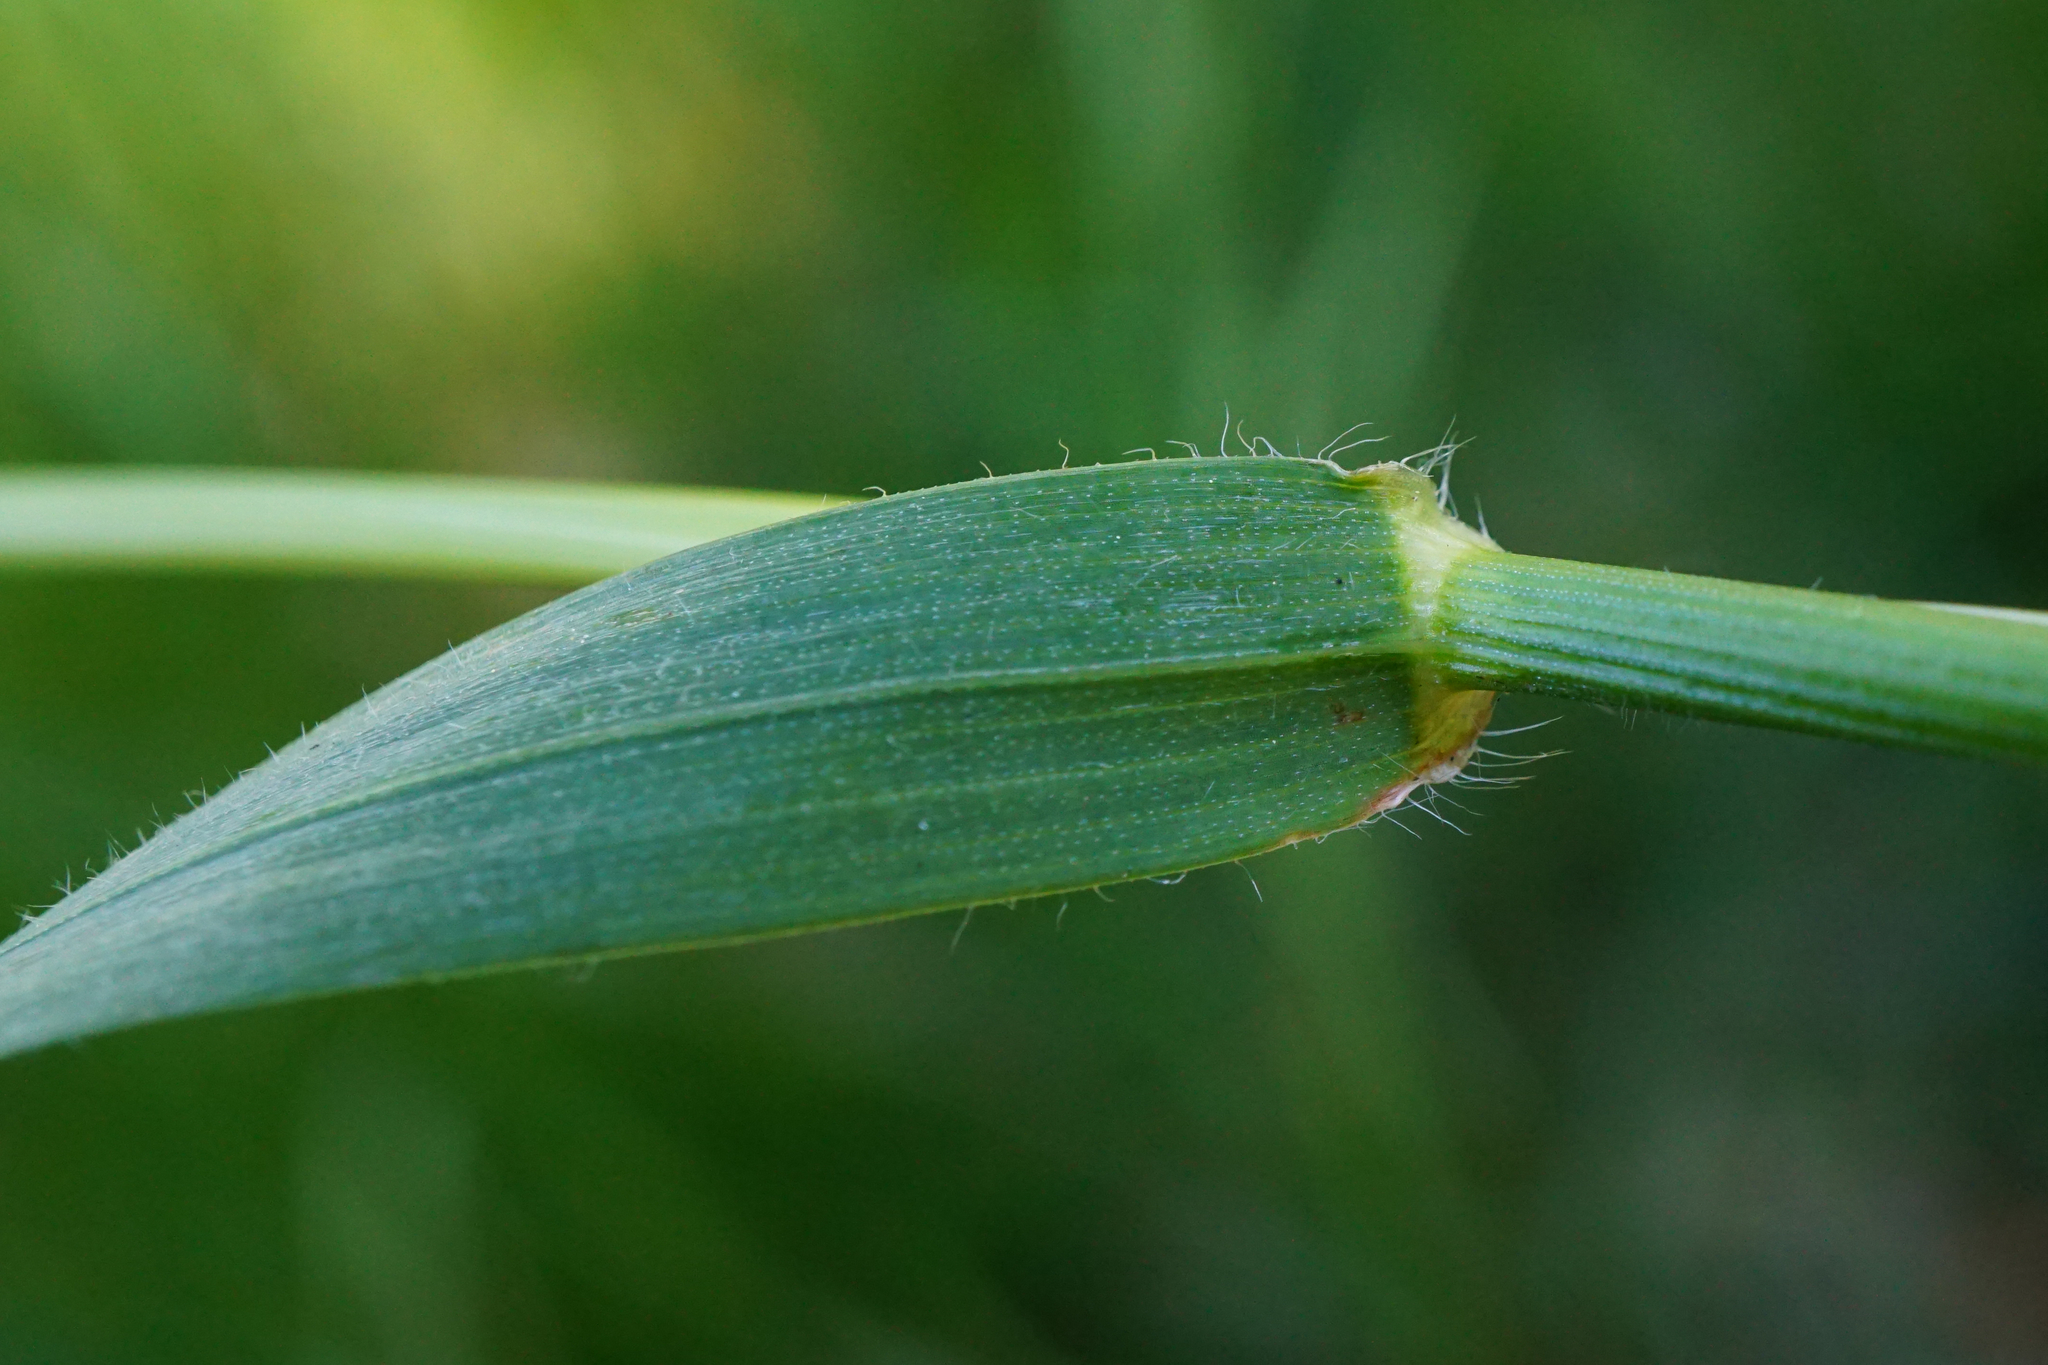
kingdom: Plantae
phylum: Tracheophyta
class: Liliopsida
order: Poales
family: Poaceae
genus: Anthoxanthum
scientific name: Anthoxanthum odoratum
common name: Sweet vernalgrass
